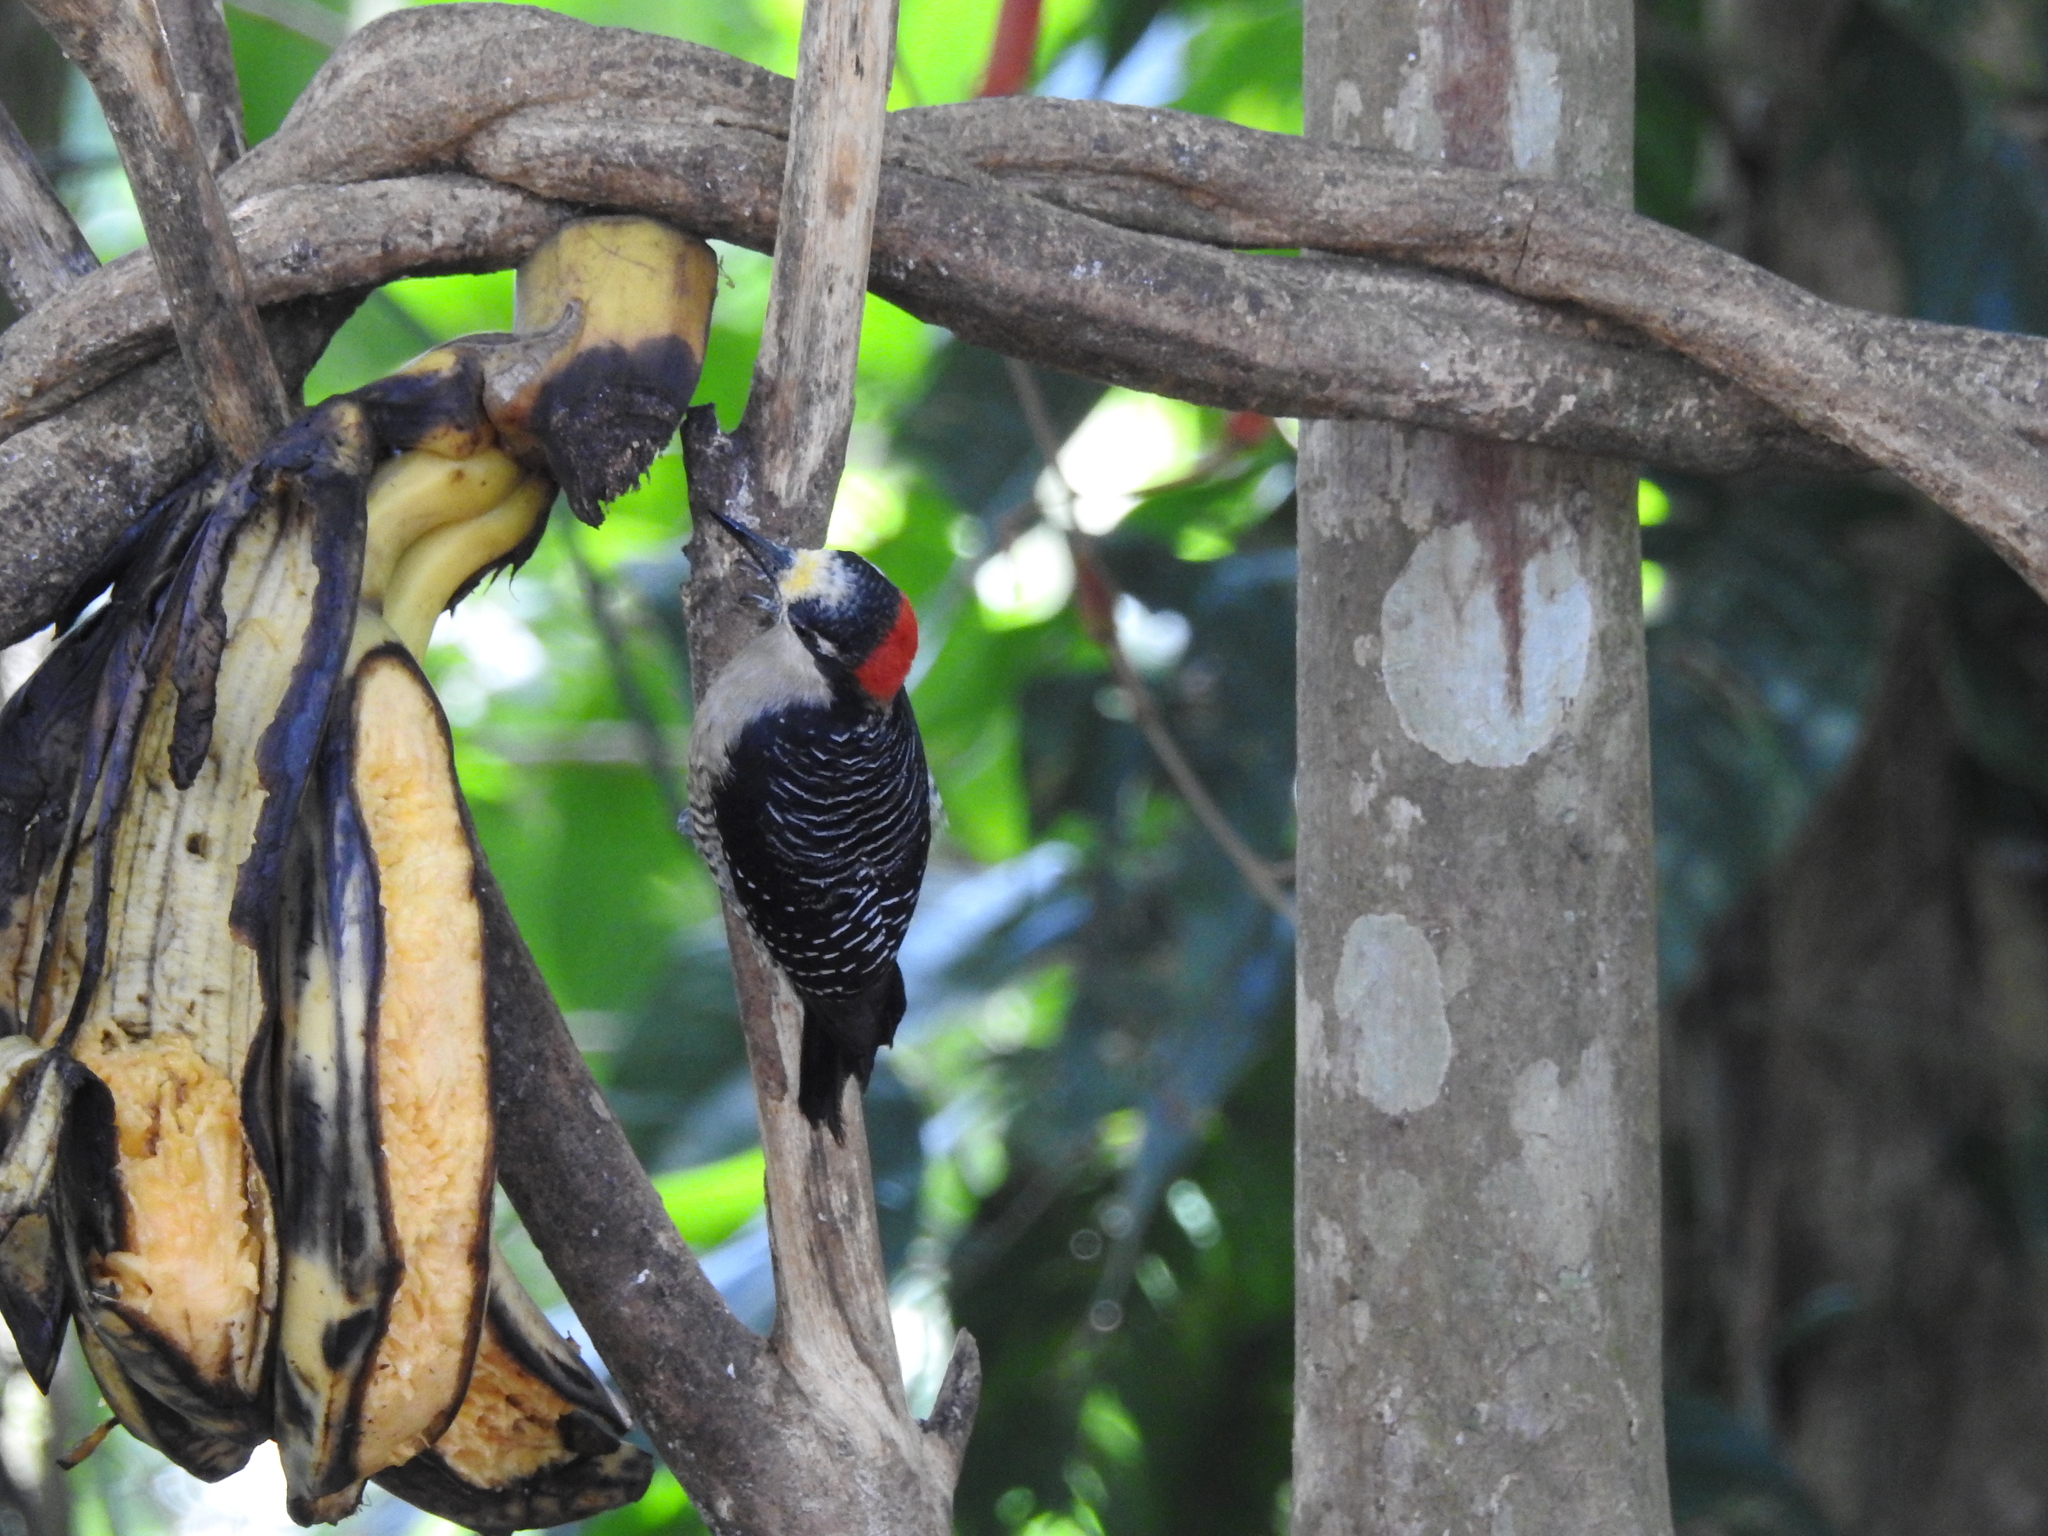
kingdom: Animalia
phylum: Chordata
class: Aves
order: Piciformes
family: Picidae
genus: Melanerpes
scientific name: Melanerpes pucherani
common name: Black-cheeked woodpecker
